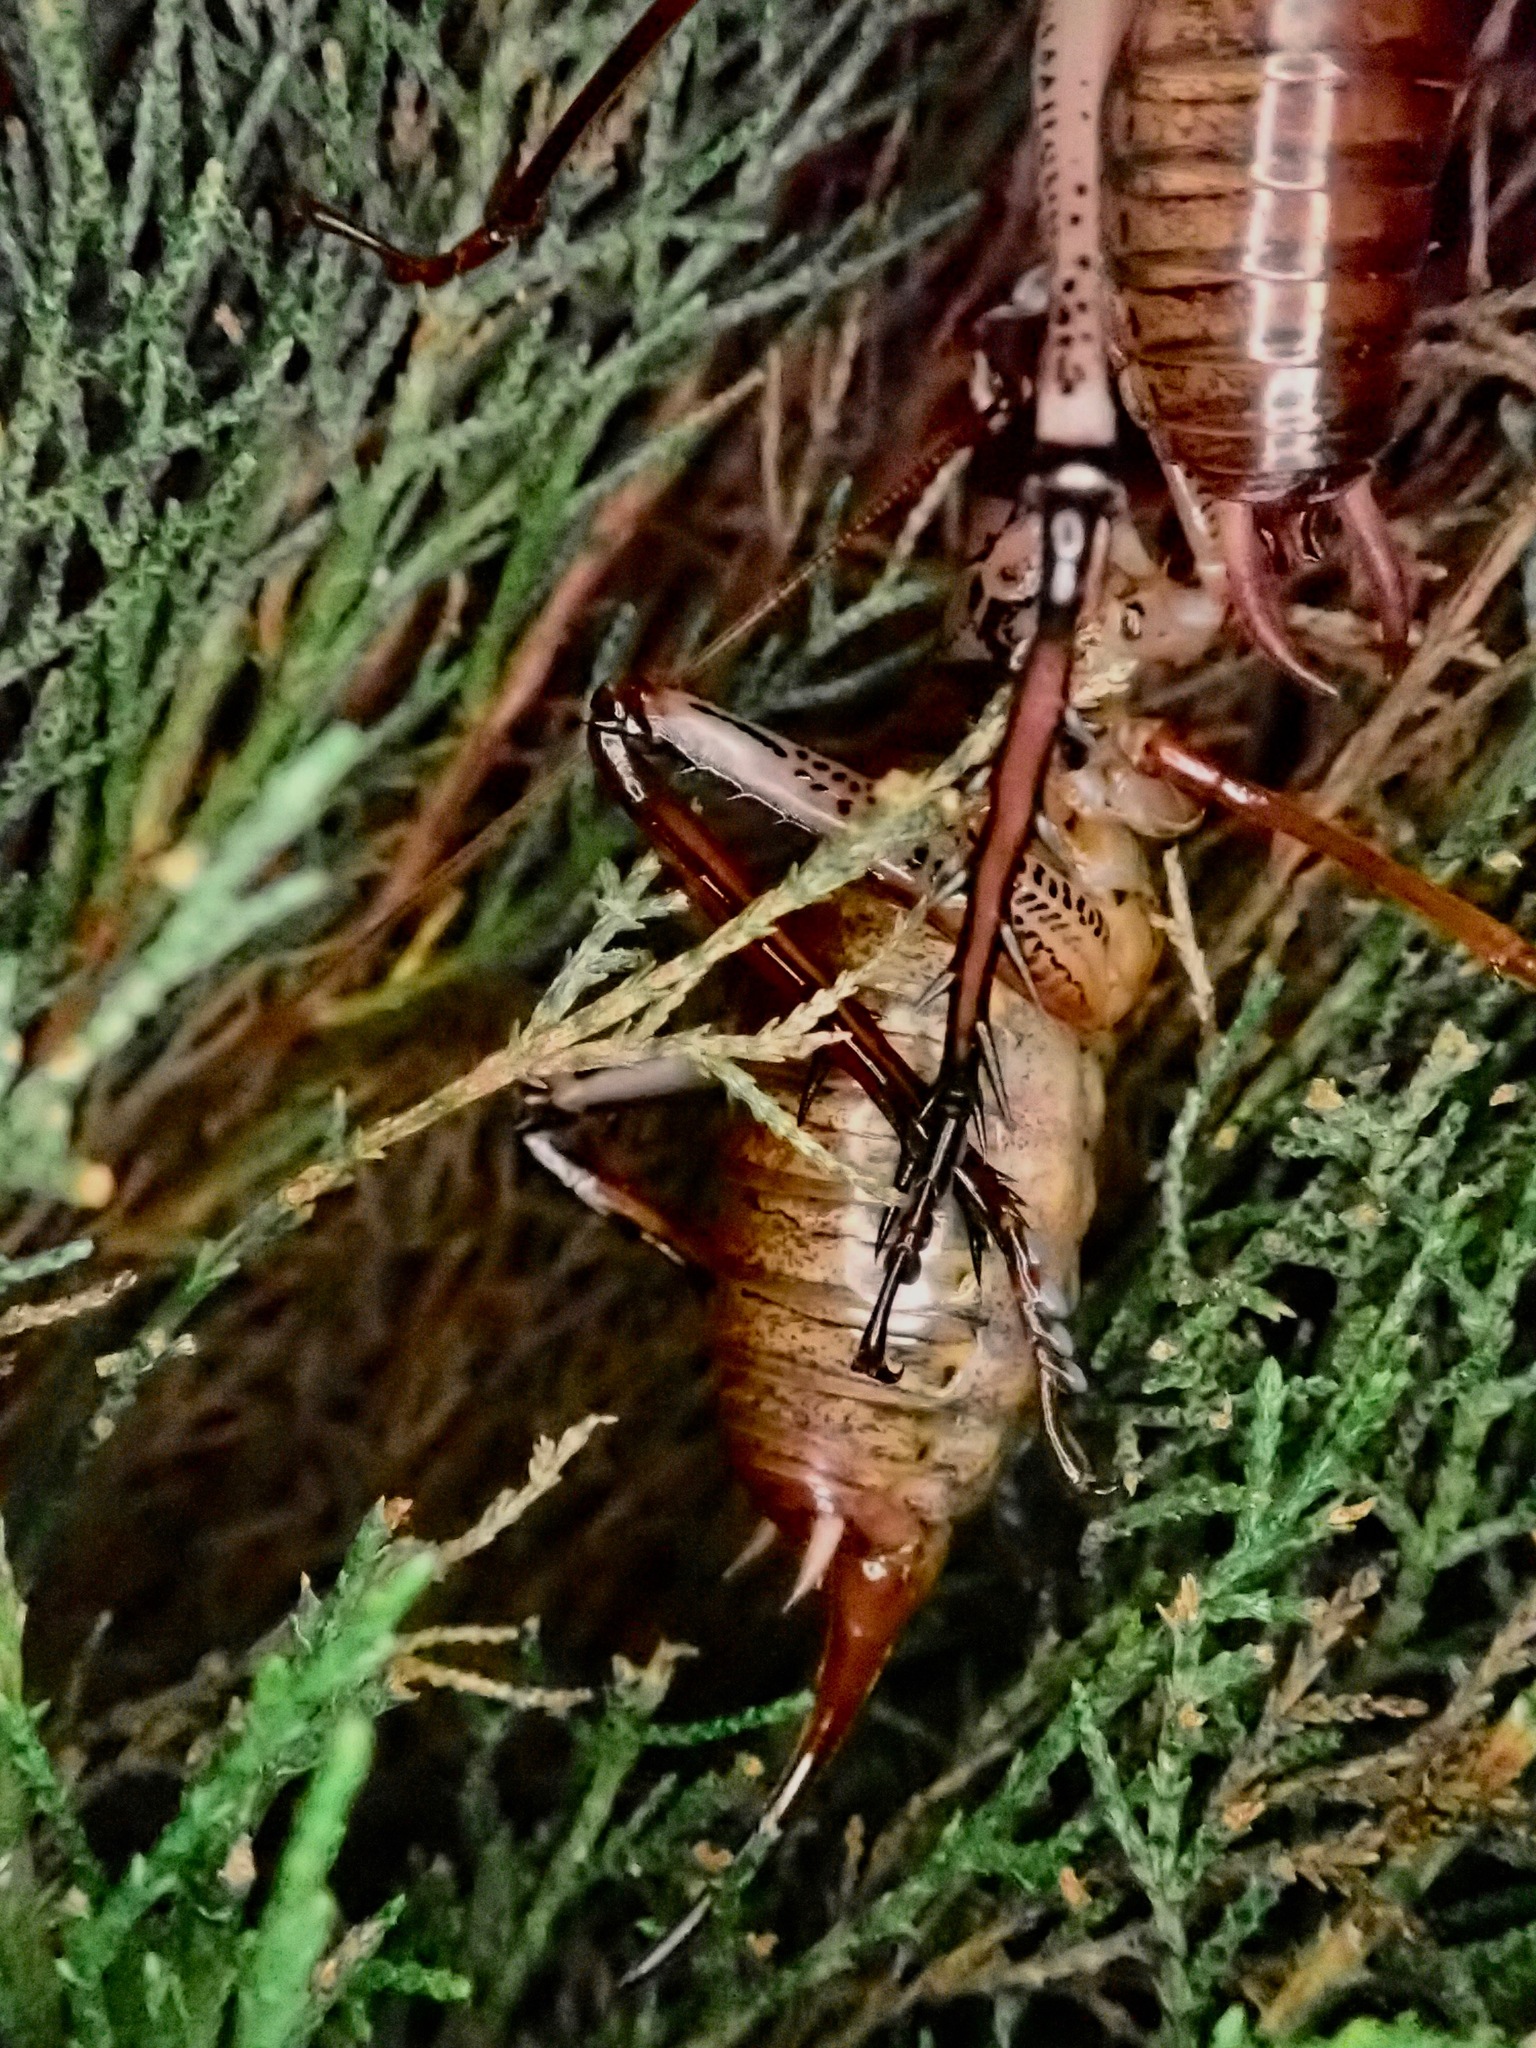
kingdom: Animalia
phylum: Arthropoda
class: Insecta
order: Orthoptera
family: Anostostomatidae
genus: Hemideina
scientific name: Hemideina thoracica
